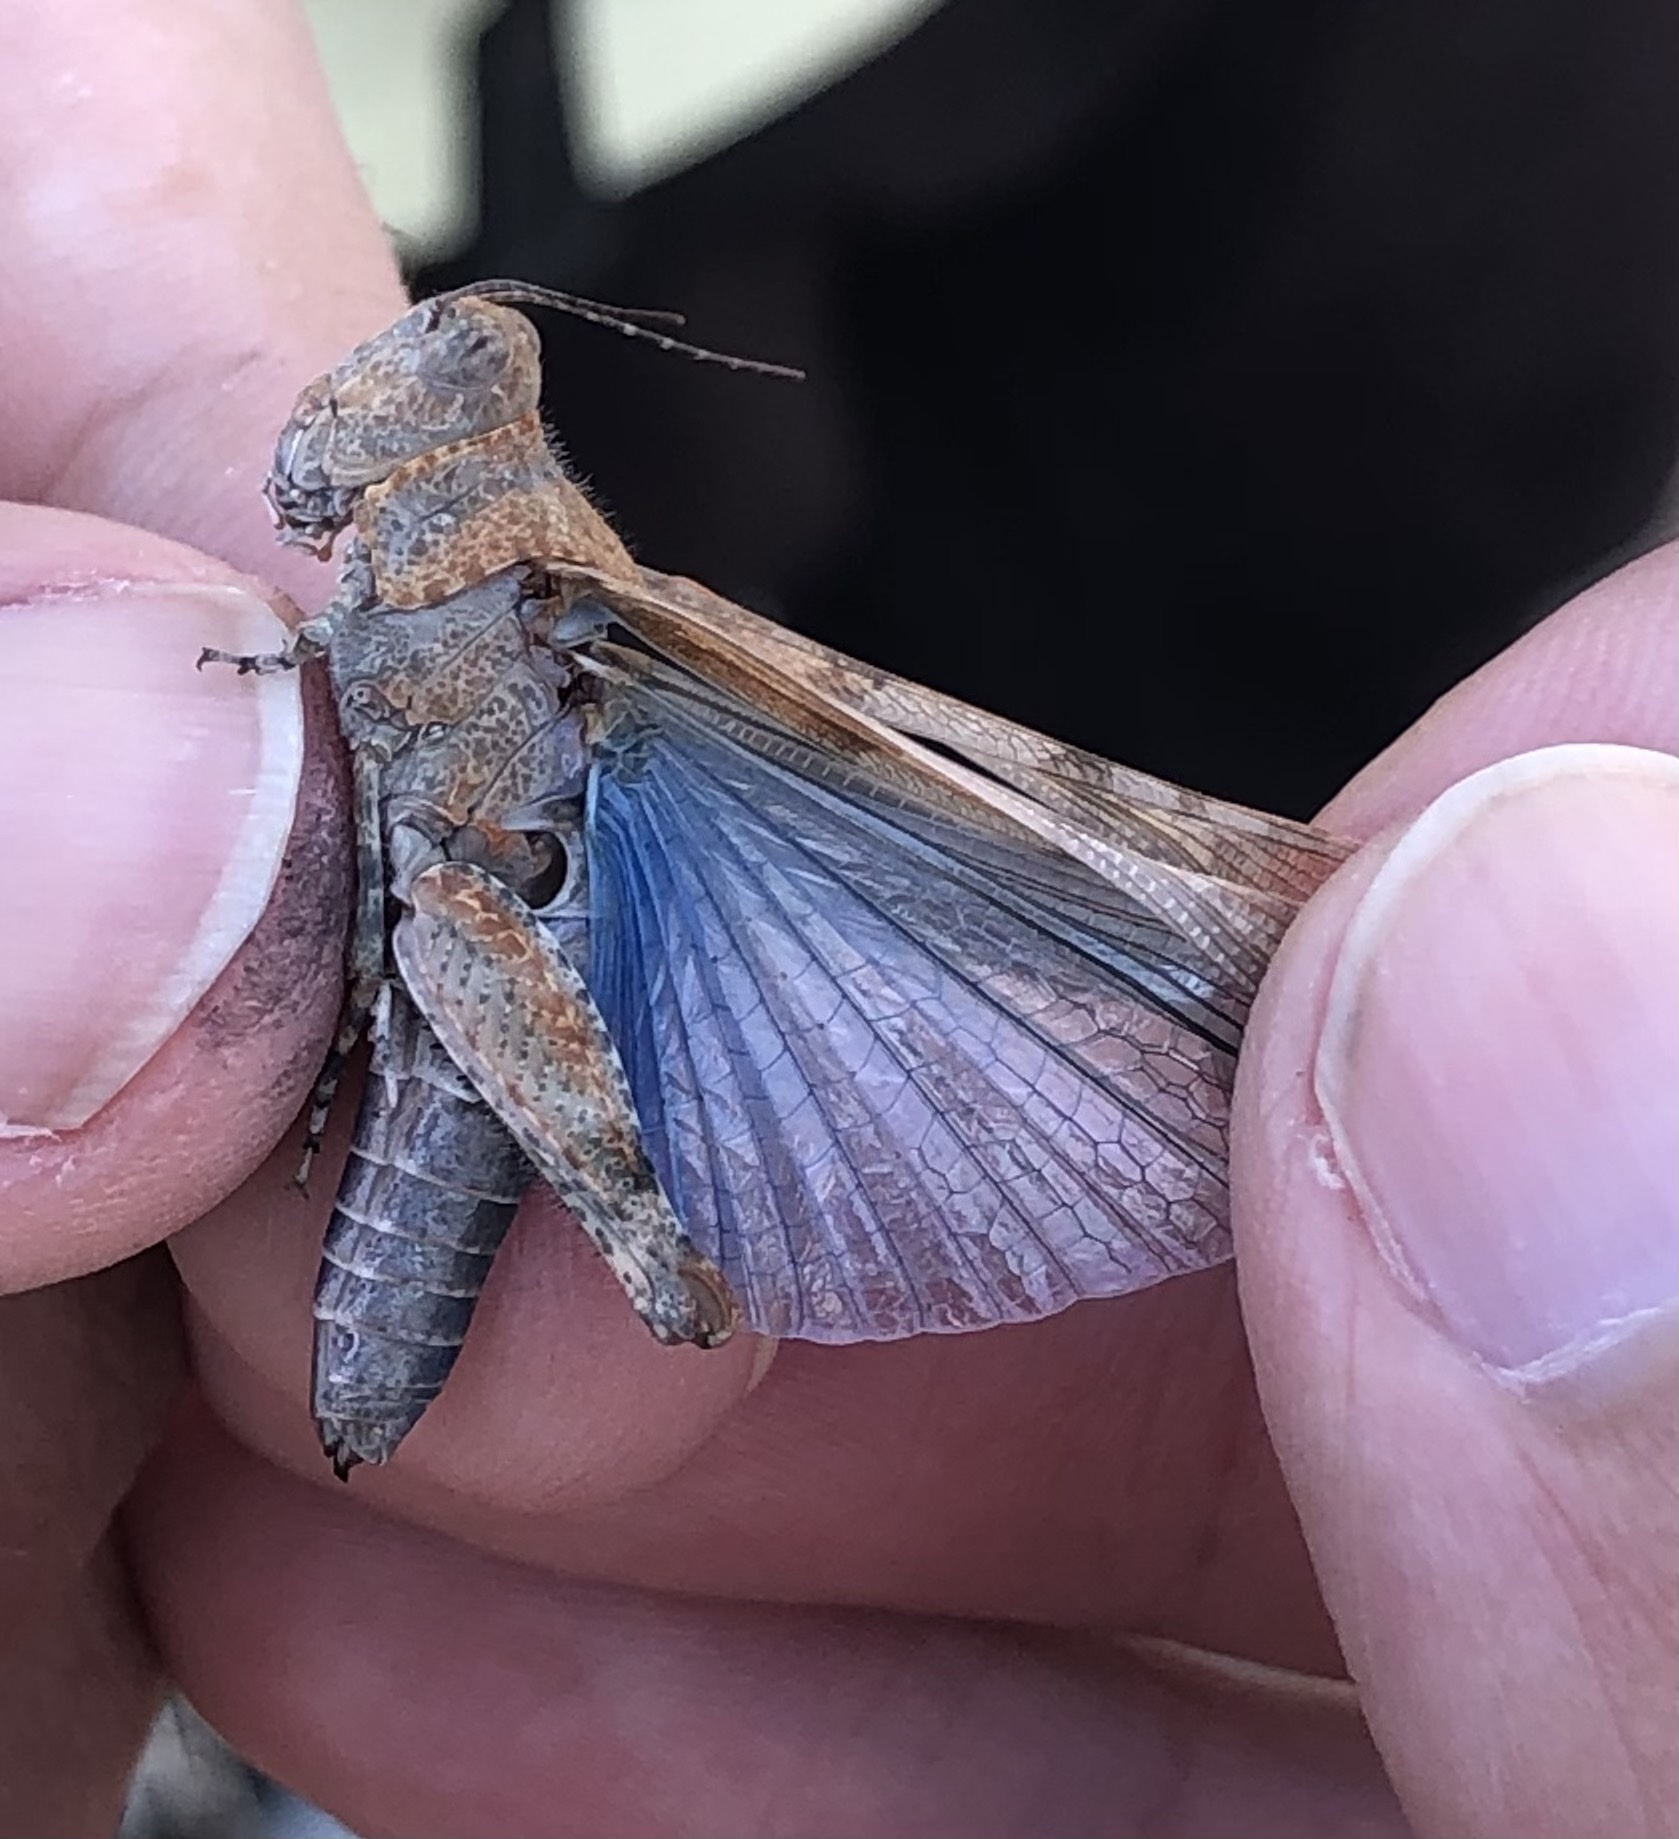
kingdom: Animalia
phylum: Arthropoda
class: Insecta
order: Orthoptera
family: Acrididae
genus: Sphingonotus
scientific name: Sphingonotus caerulans
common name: Blue-winged locust
